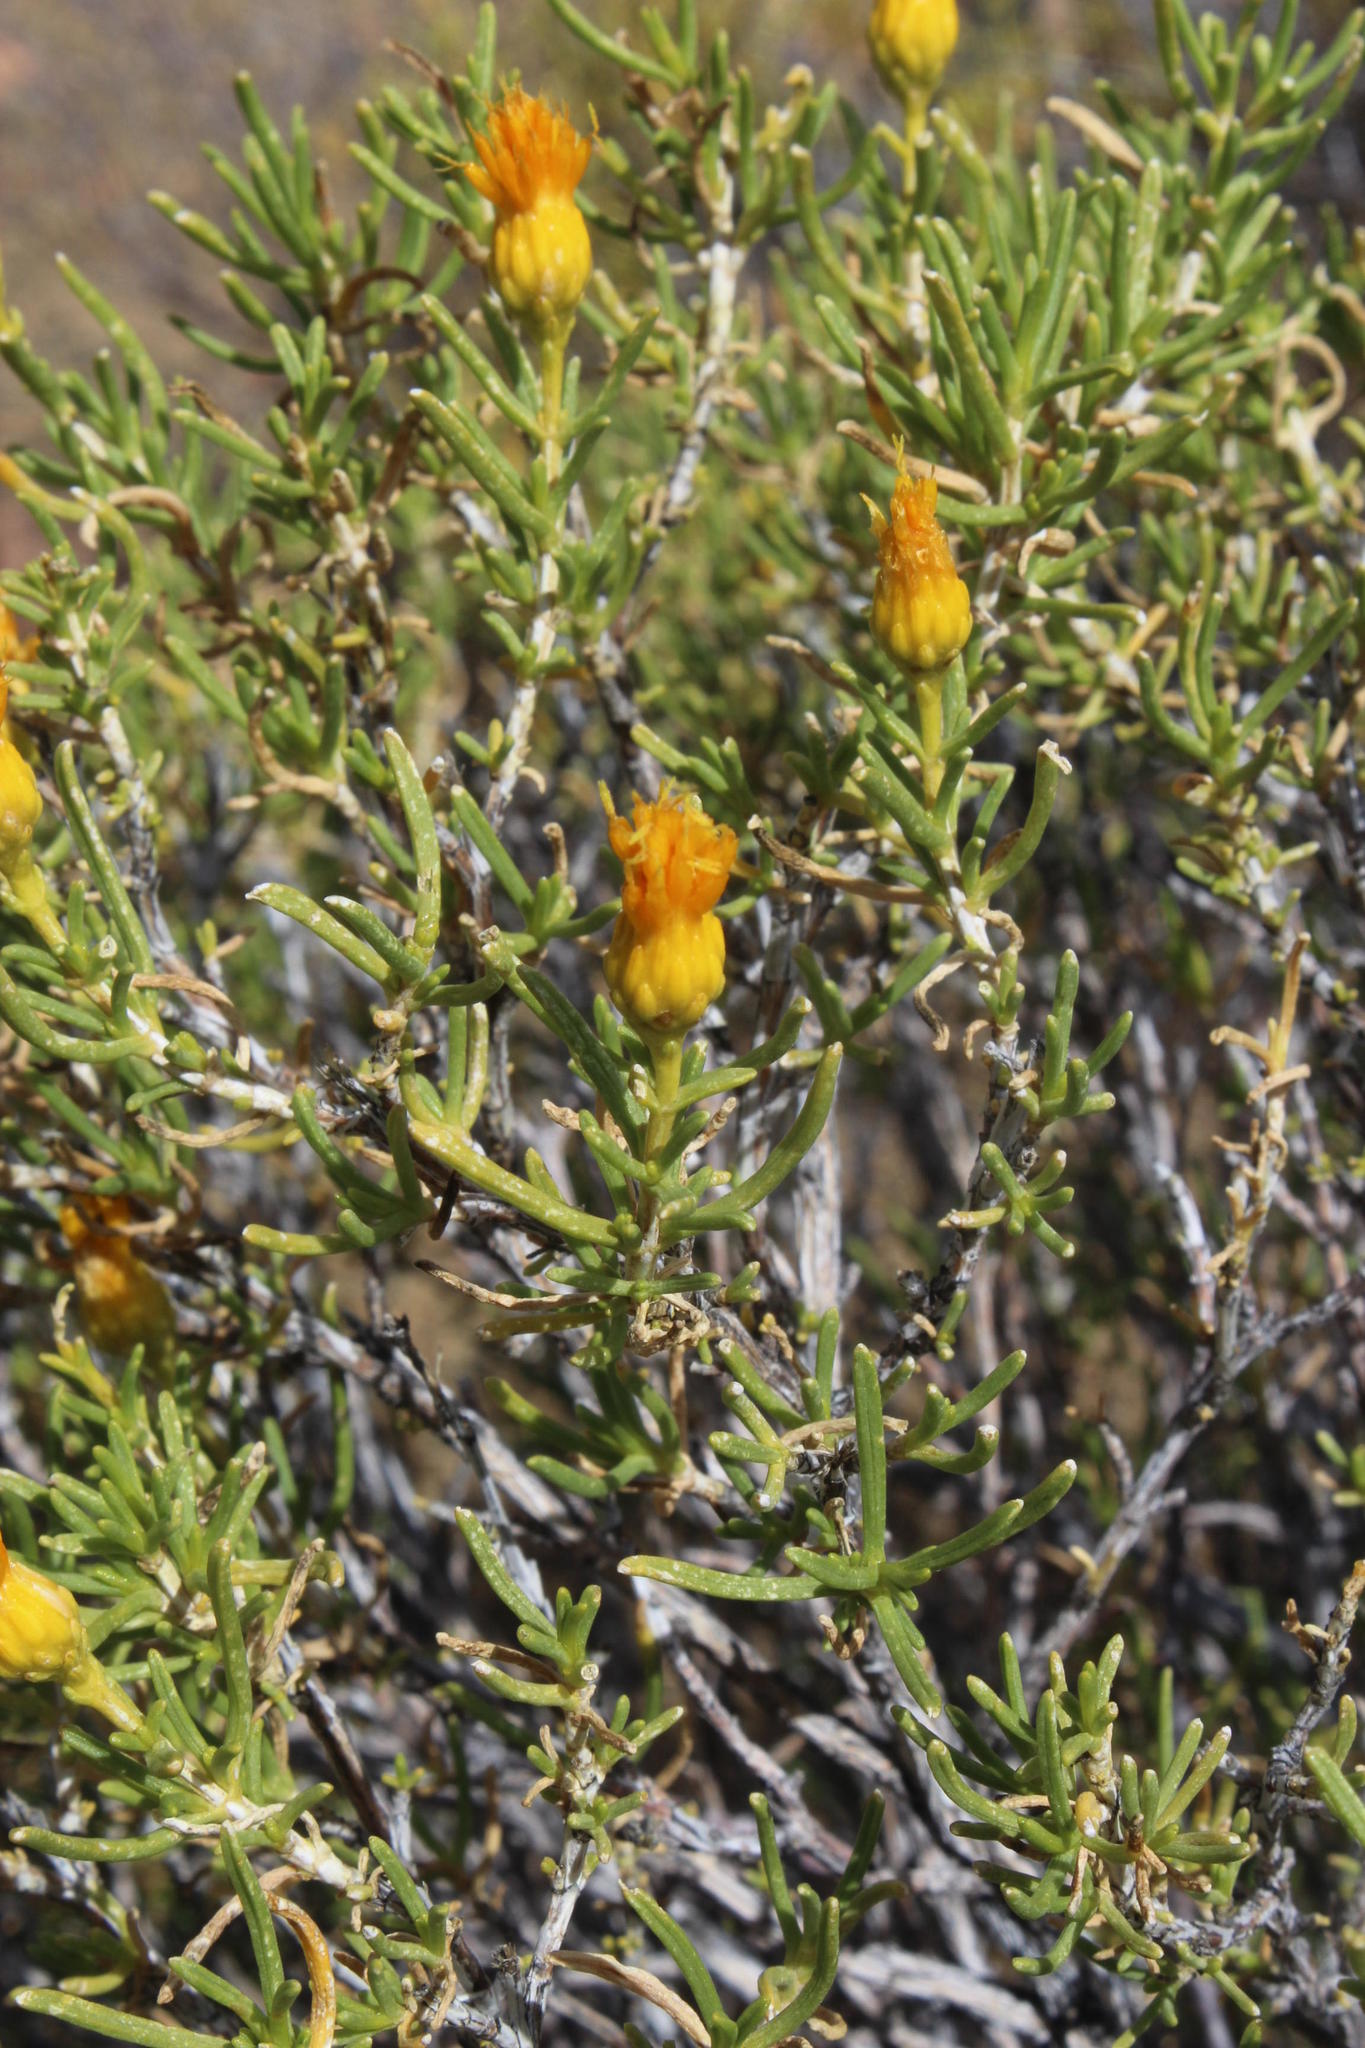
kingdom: Plantae
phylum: Tracheophyta
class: Magnoliopsida
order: Asterales
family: Asteraceae
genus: Pteronia
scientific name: Pteronia pallens
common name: Scholtzbush
